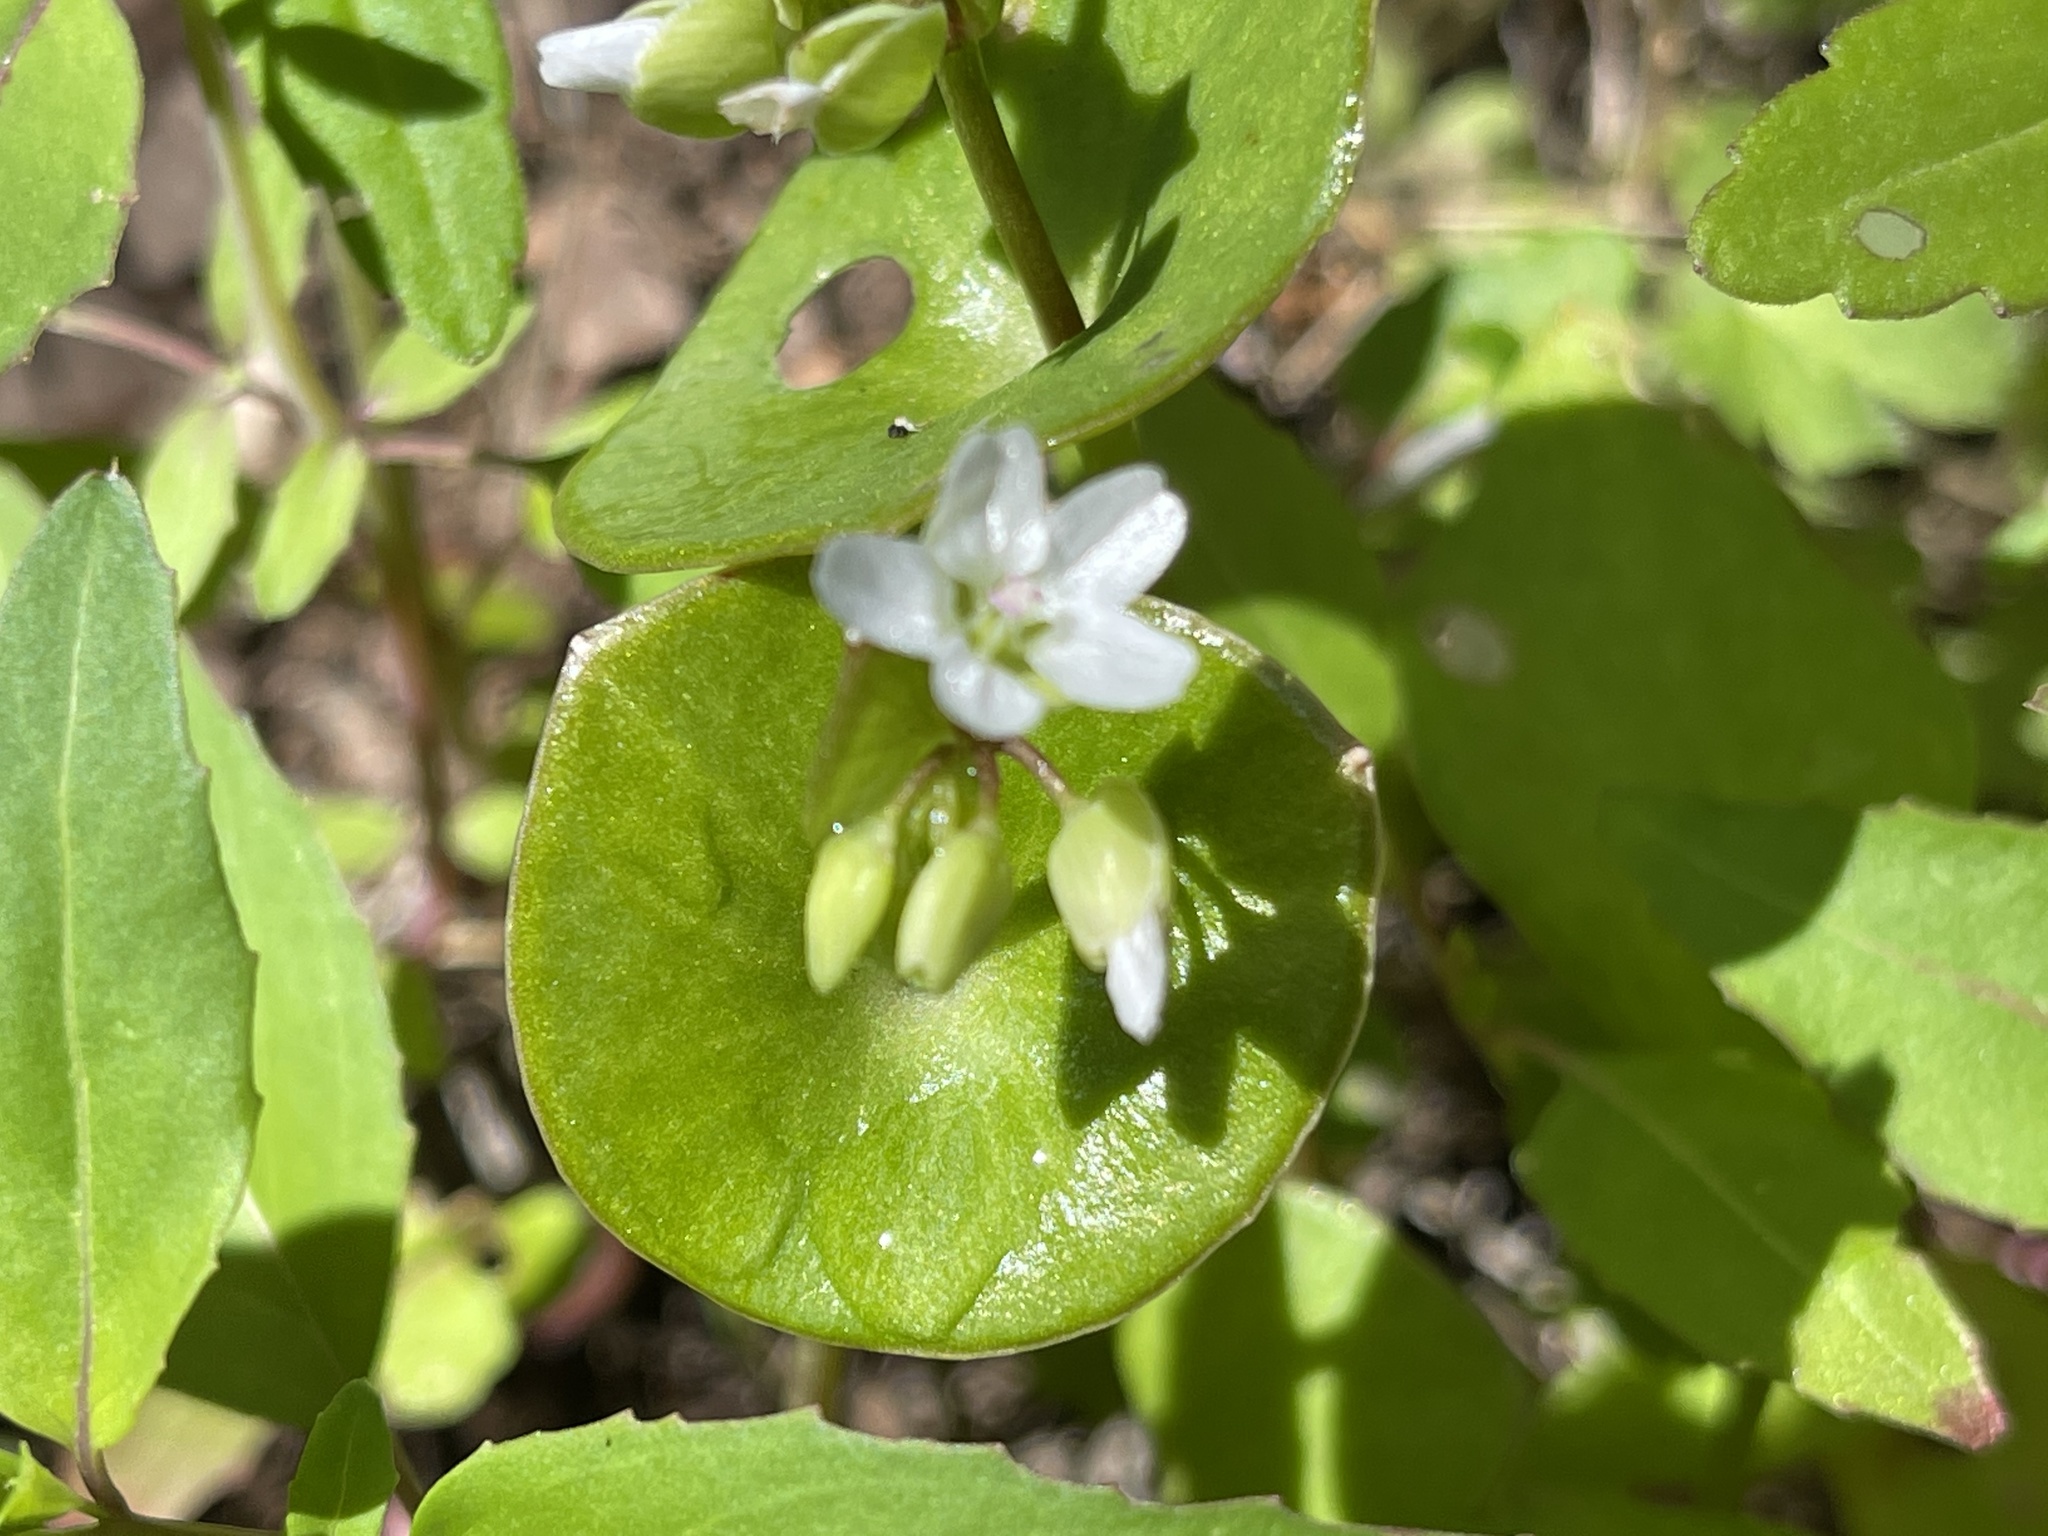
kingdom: Plantae
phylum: Tracheophyta
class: Magnoliopsida
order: Caryophyllales
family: Montiaceae
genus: Claytonia
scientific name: Claytonia perfoliata
